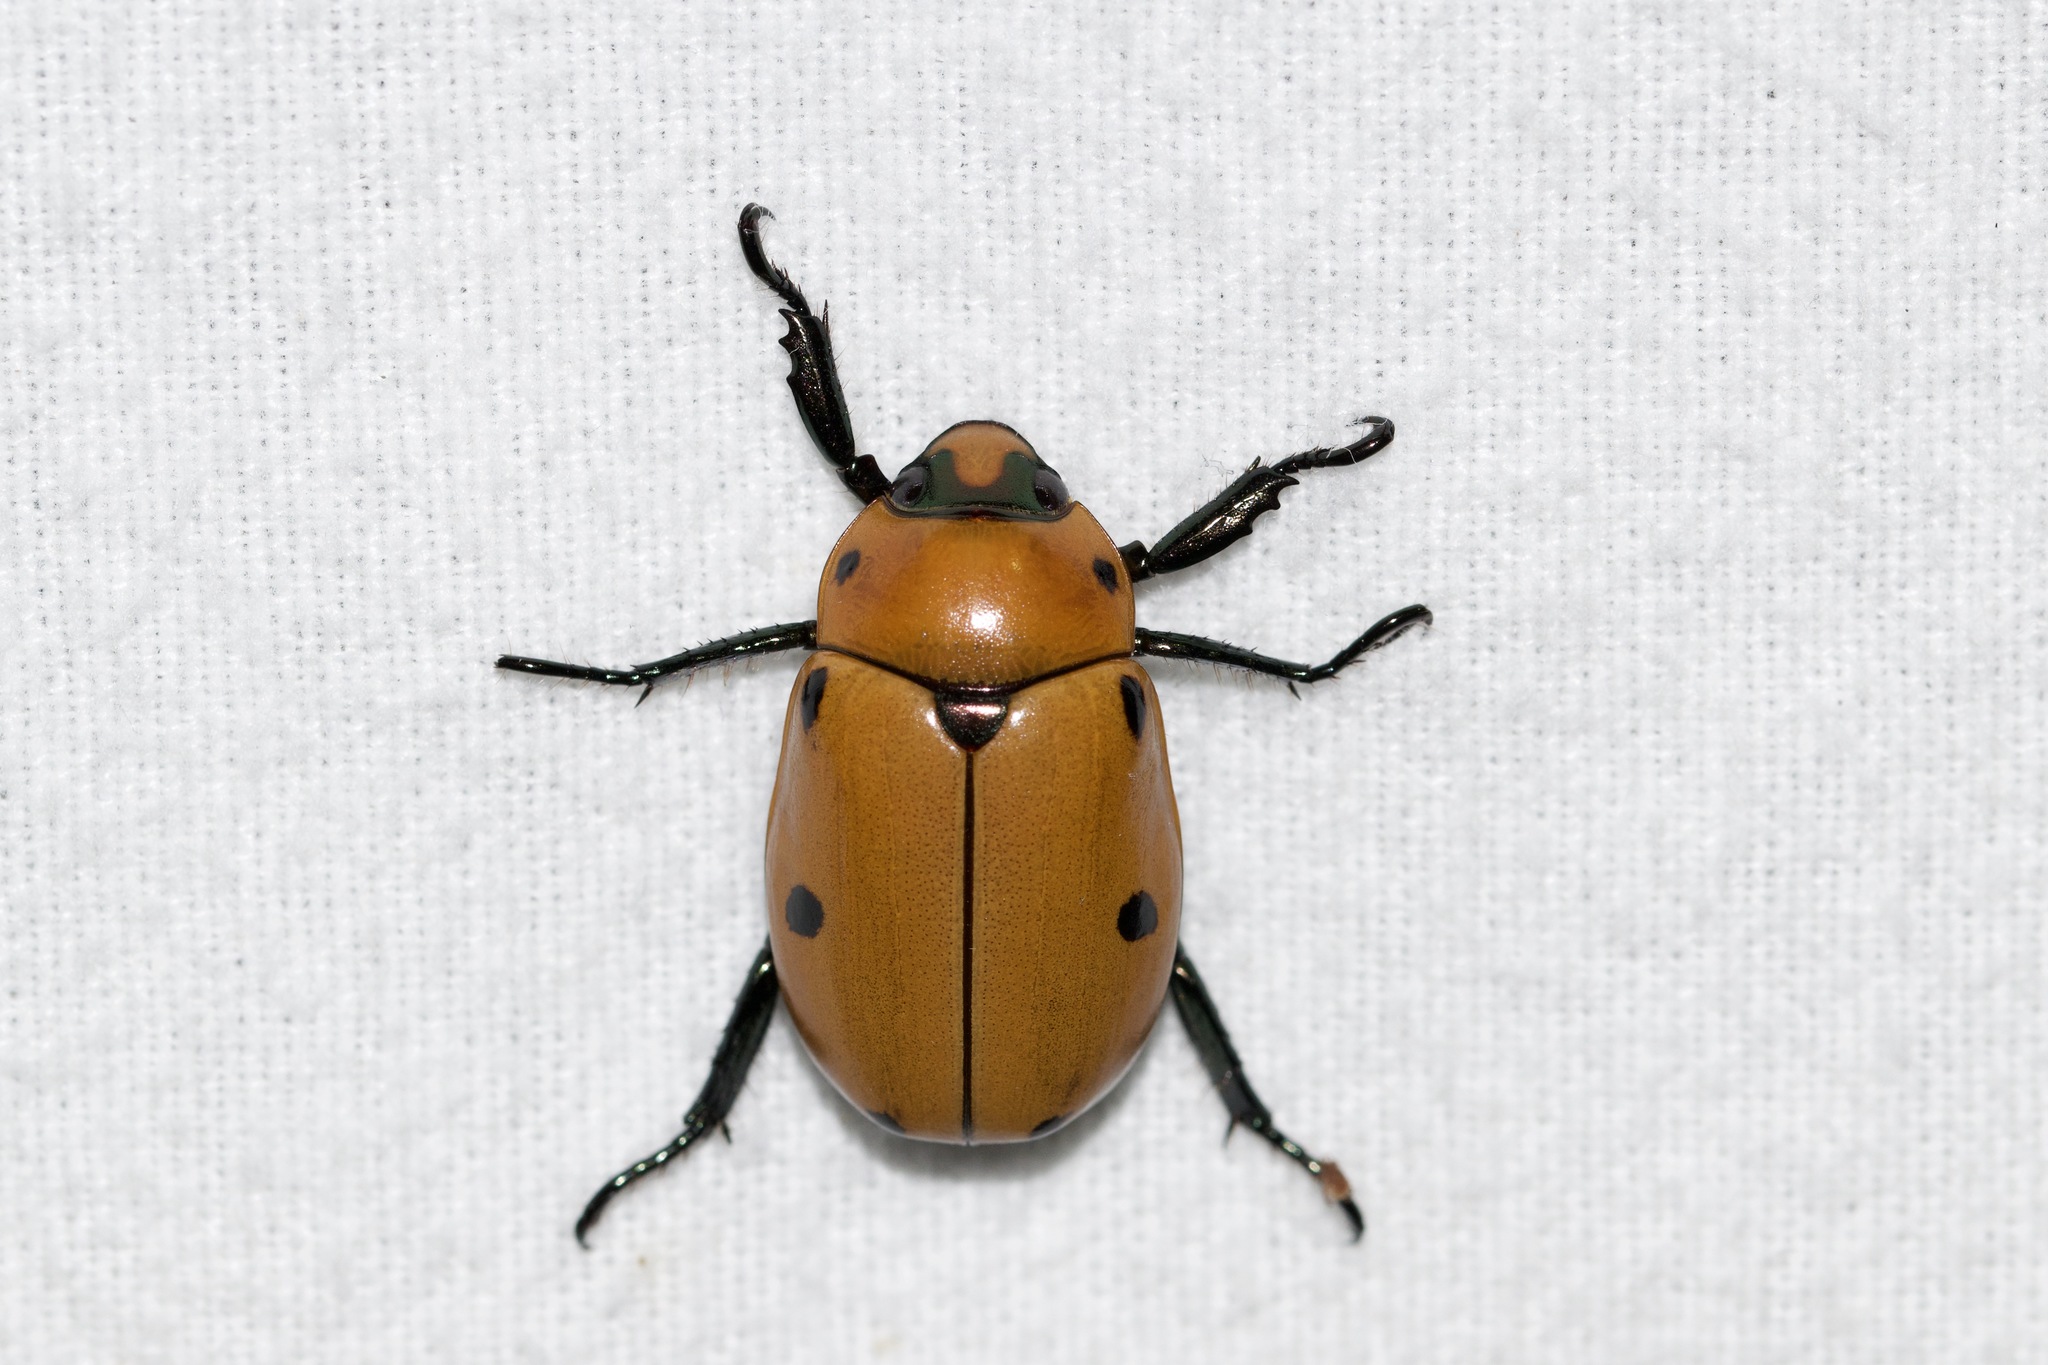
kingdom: Animalia
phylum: Arthropoda
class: Insecta
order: Coleoptera
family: Scarabaeidae
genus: Pelidnota
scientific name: Pelidnota punctata
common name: Grapevine beetle
